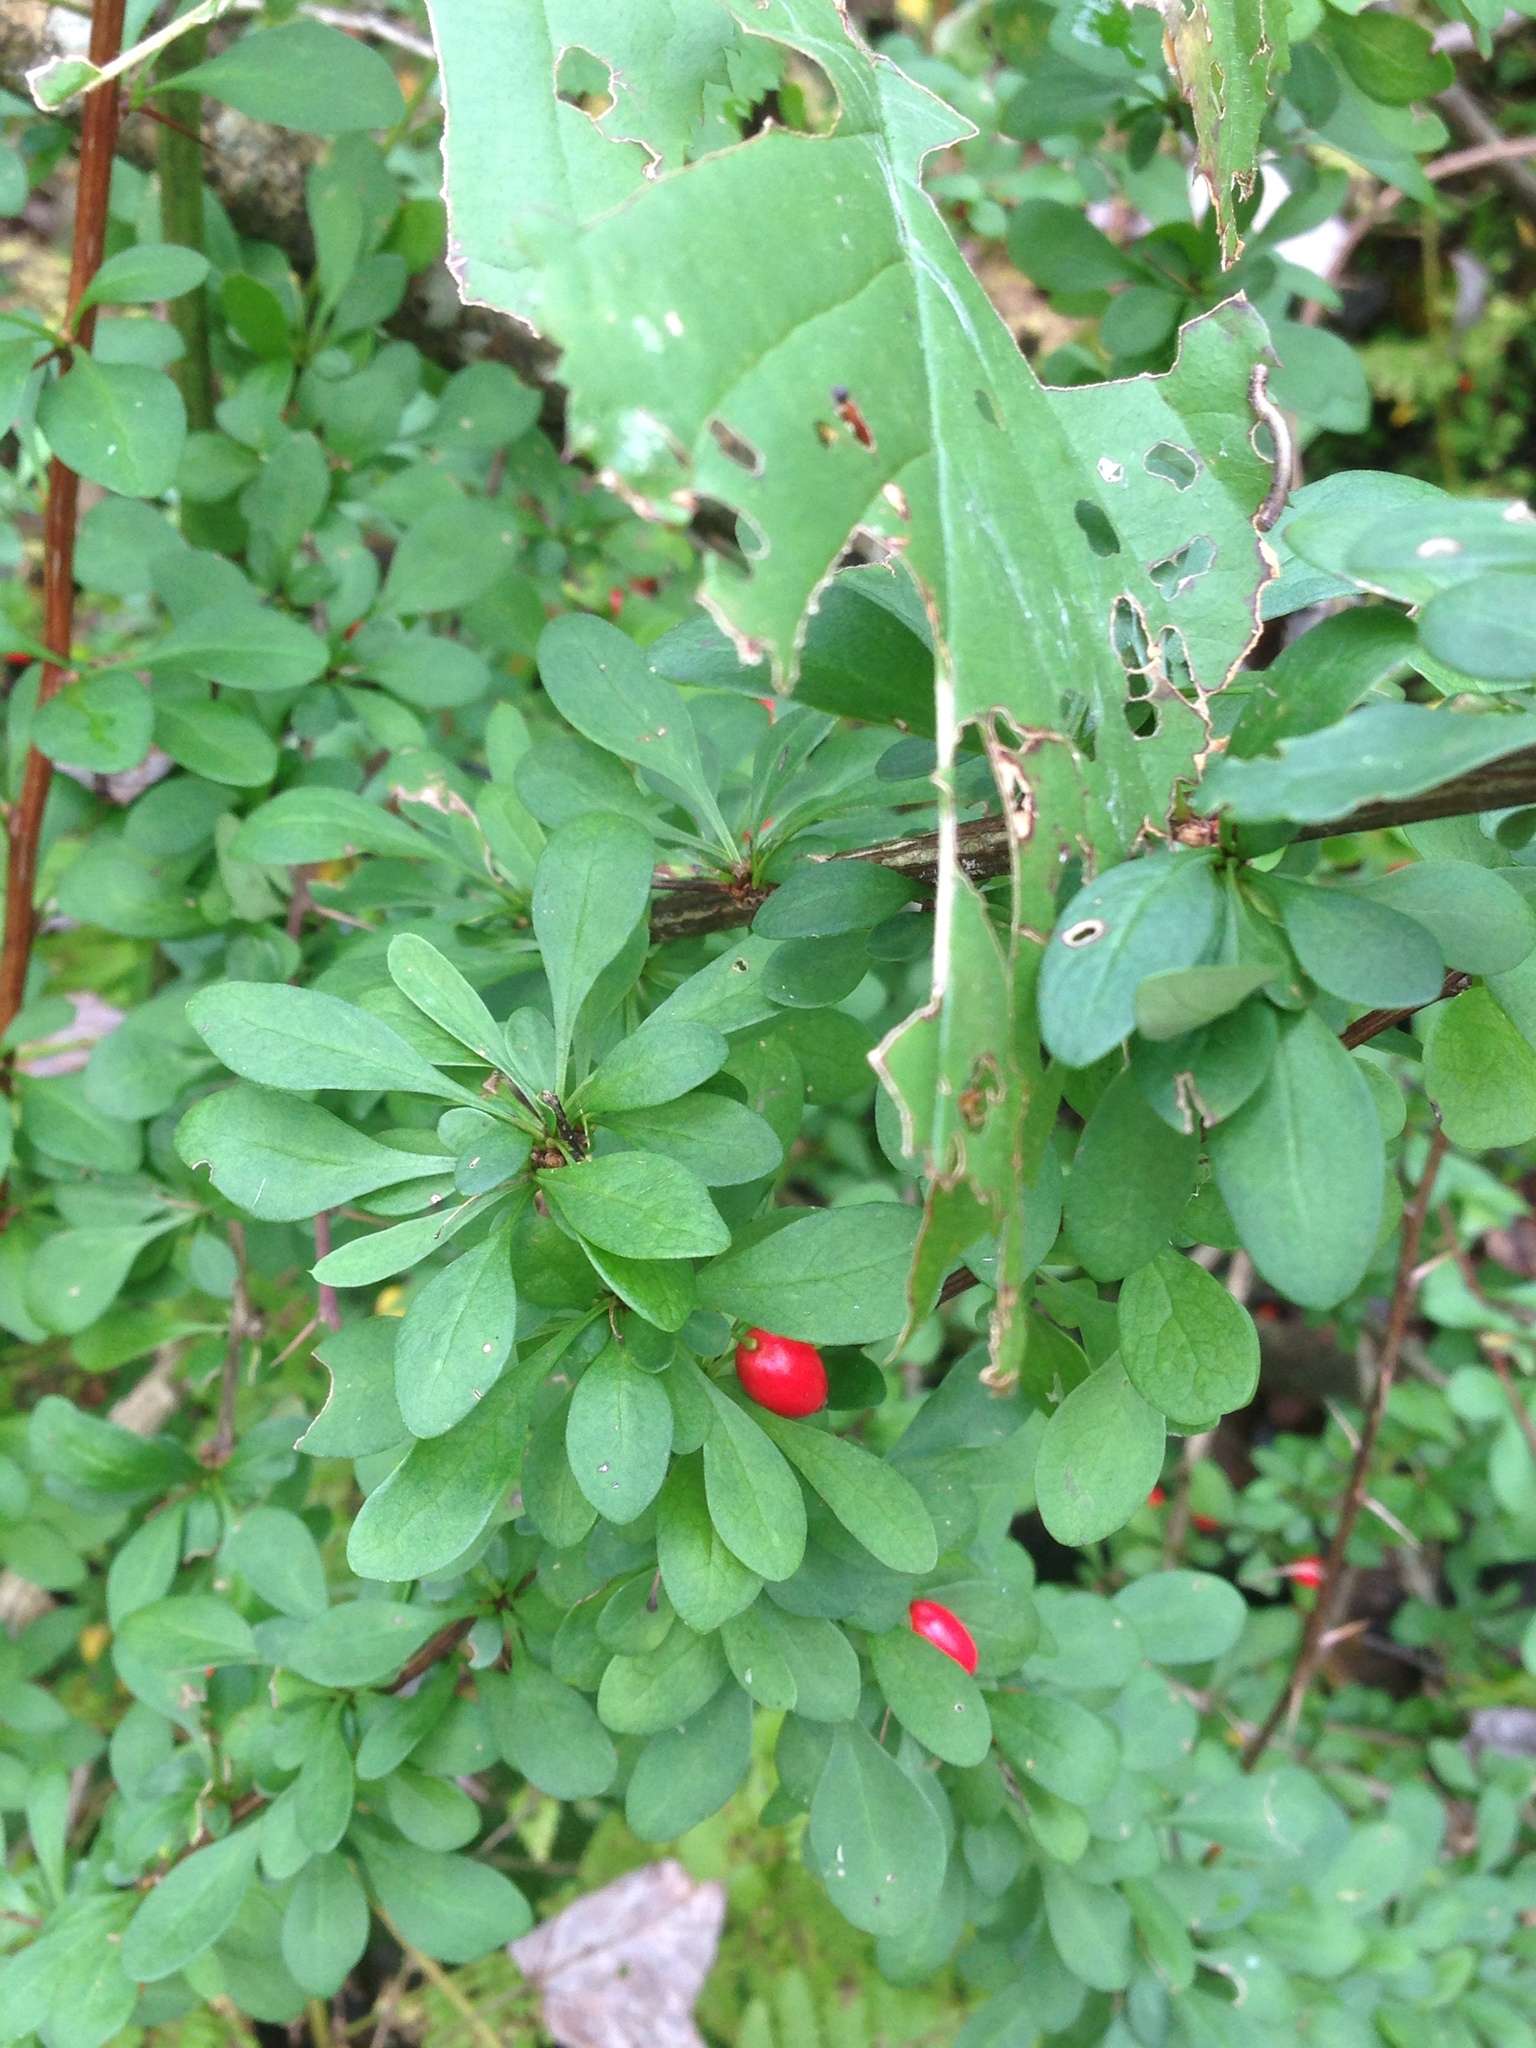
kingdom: Plantae
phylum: Tracheophyta
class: Magnoliopsida
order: Ranunculales
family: Berberidaceae
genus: Berberis
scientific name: Berberis thunbergii
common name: Japanese barberry
